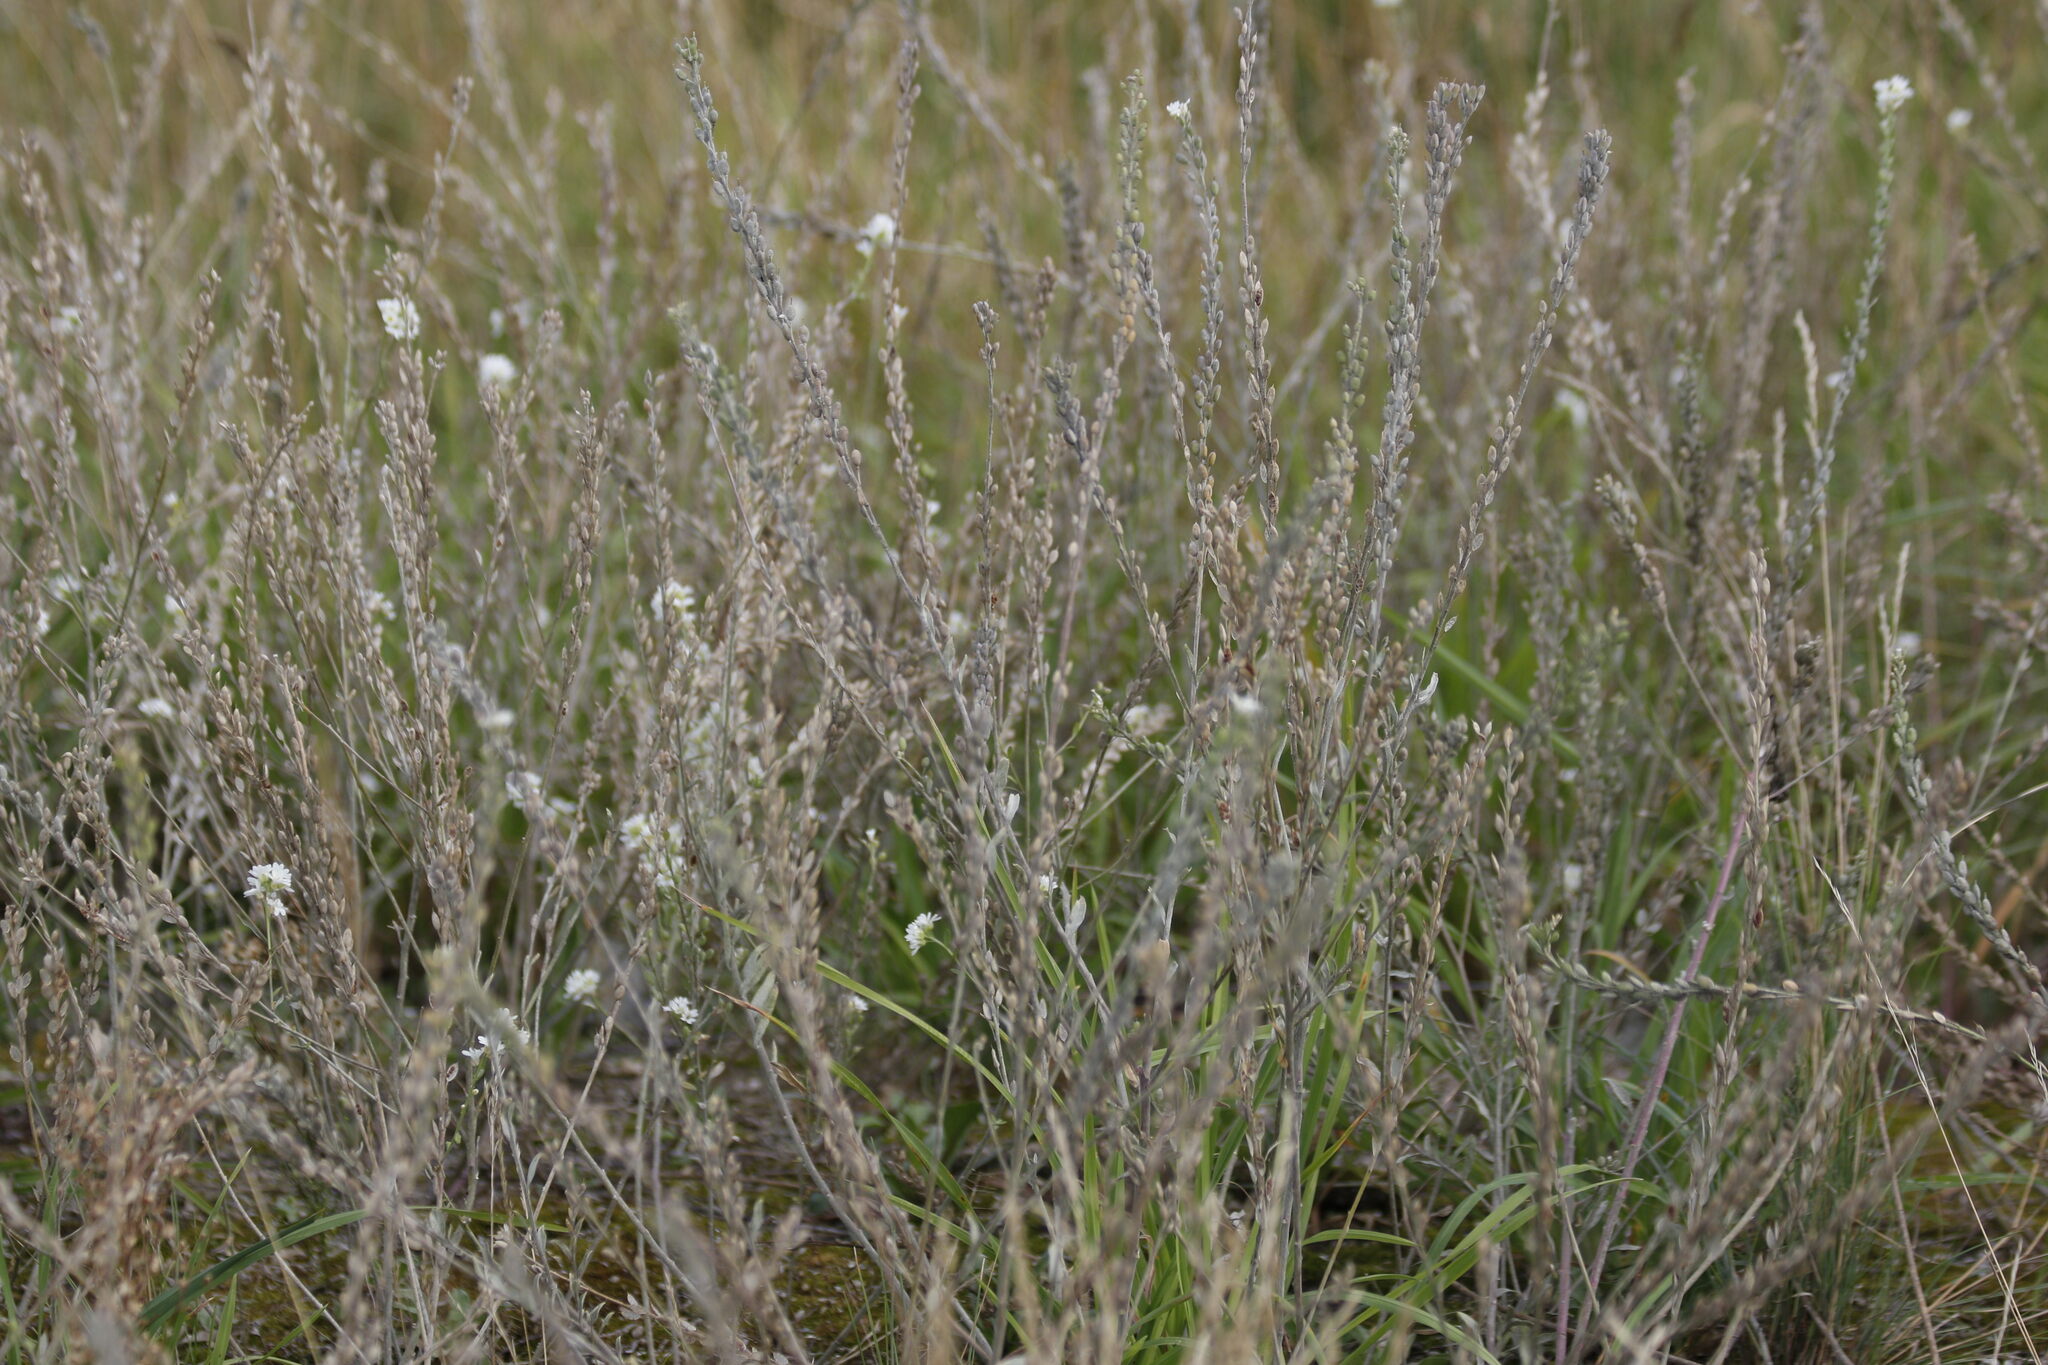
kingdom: Plantae
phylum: Tracheophyta
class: Magnoliopsida
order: Brassicales
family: Brassicaceae
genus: Berteroa
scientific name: Berteroa incana
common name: Hoary alison
